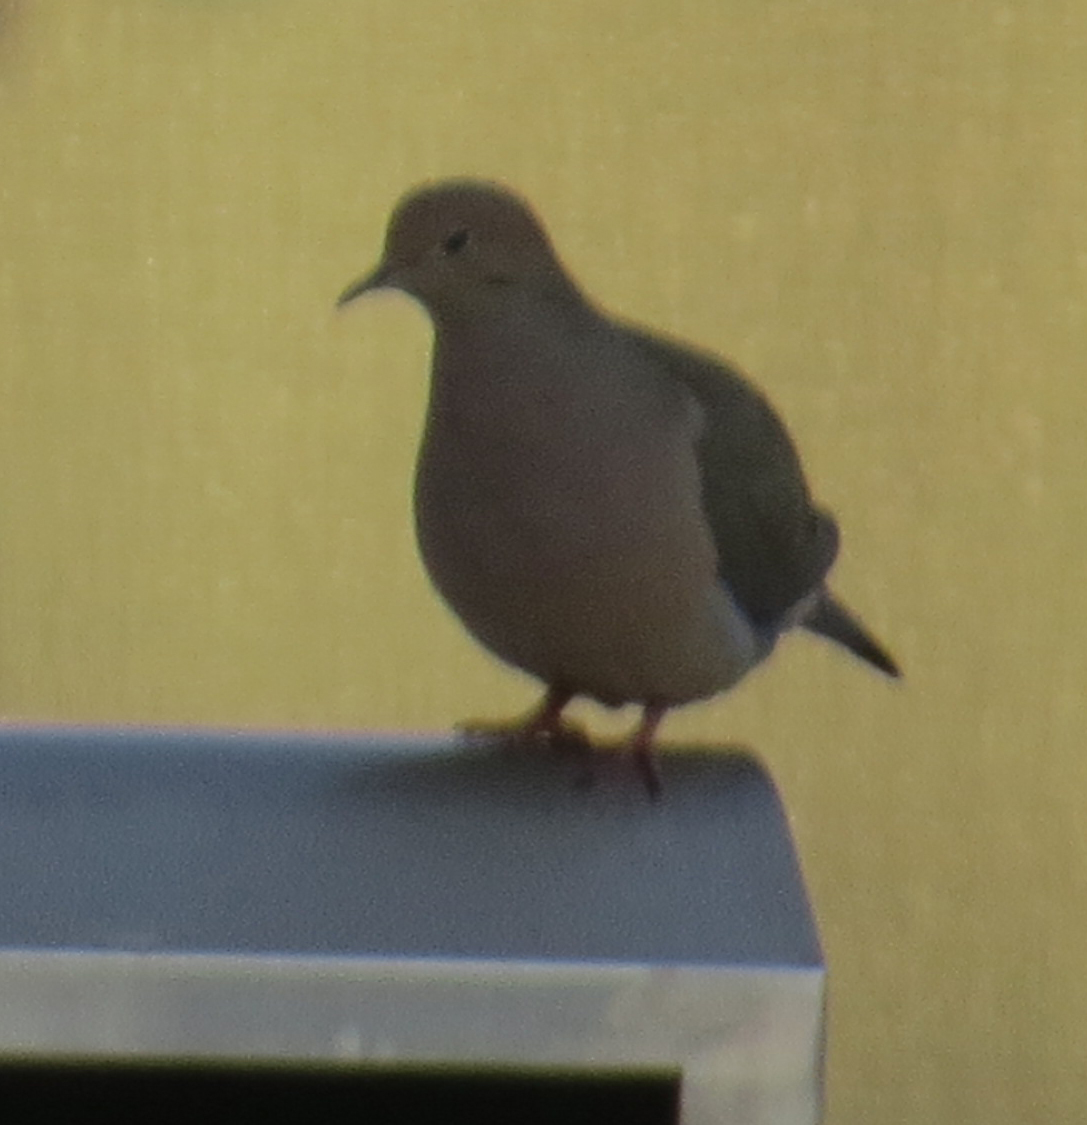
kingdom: Animalia
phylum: Chordata
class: Aves
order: Columbiformes
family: Columbidae
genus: Zenaida
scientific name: Zenaida macroura
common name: Mourning dove
